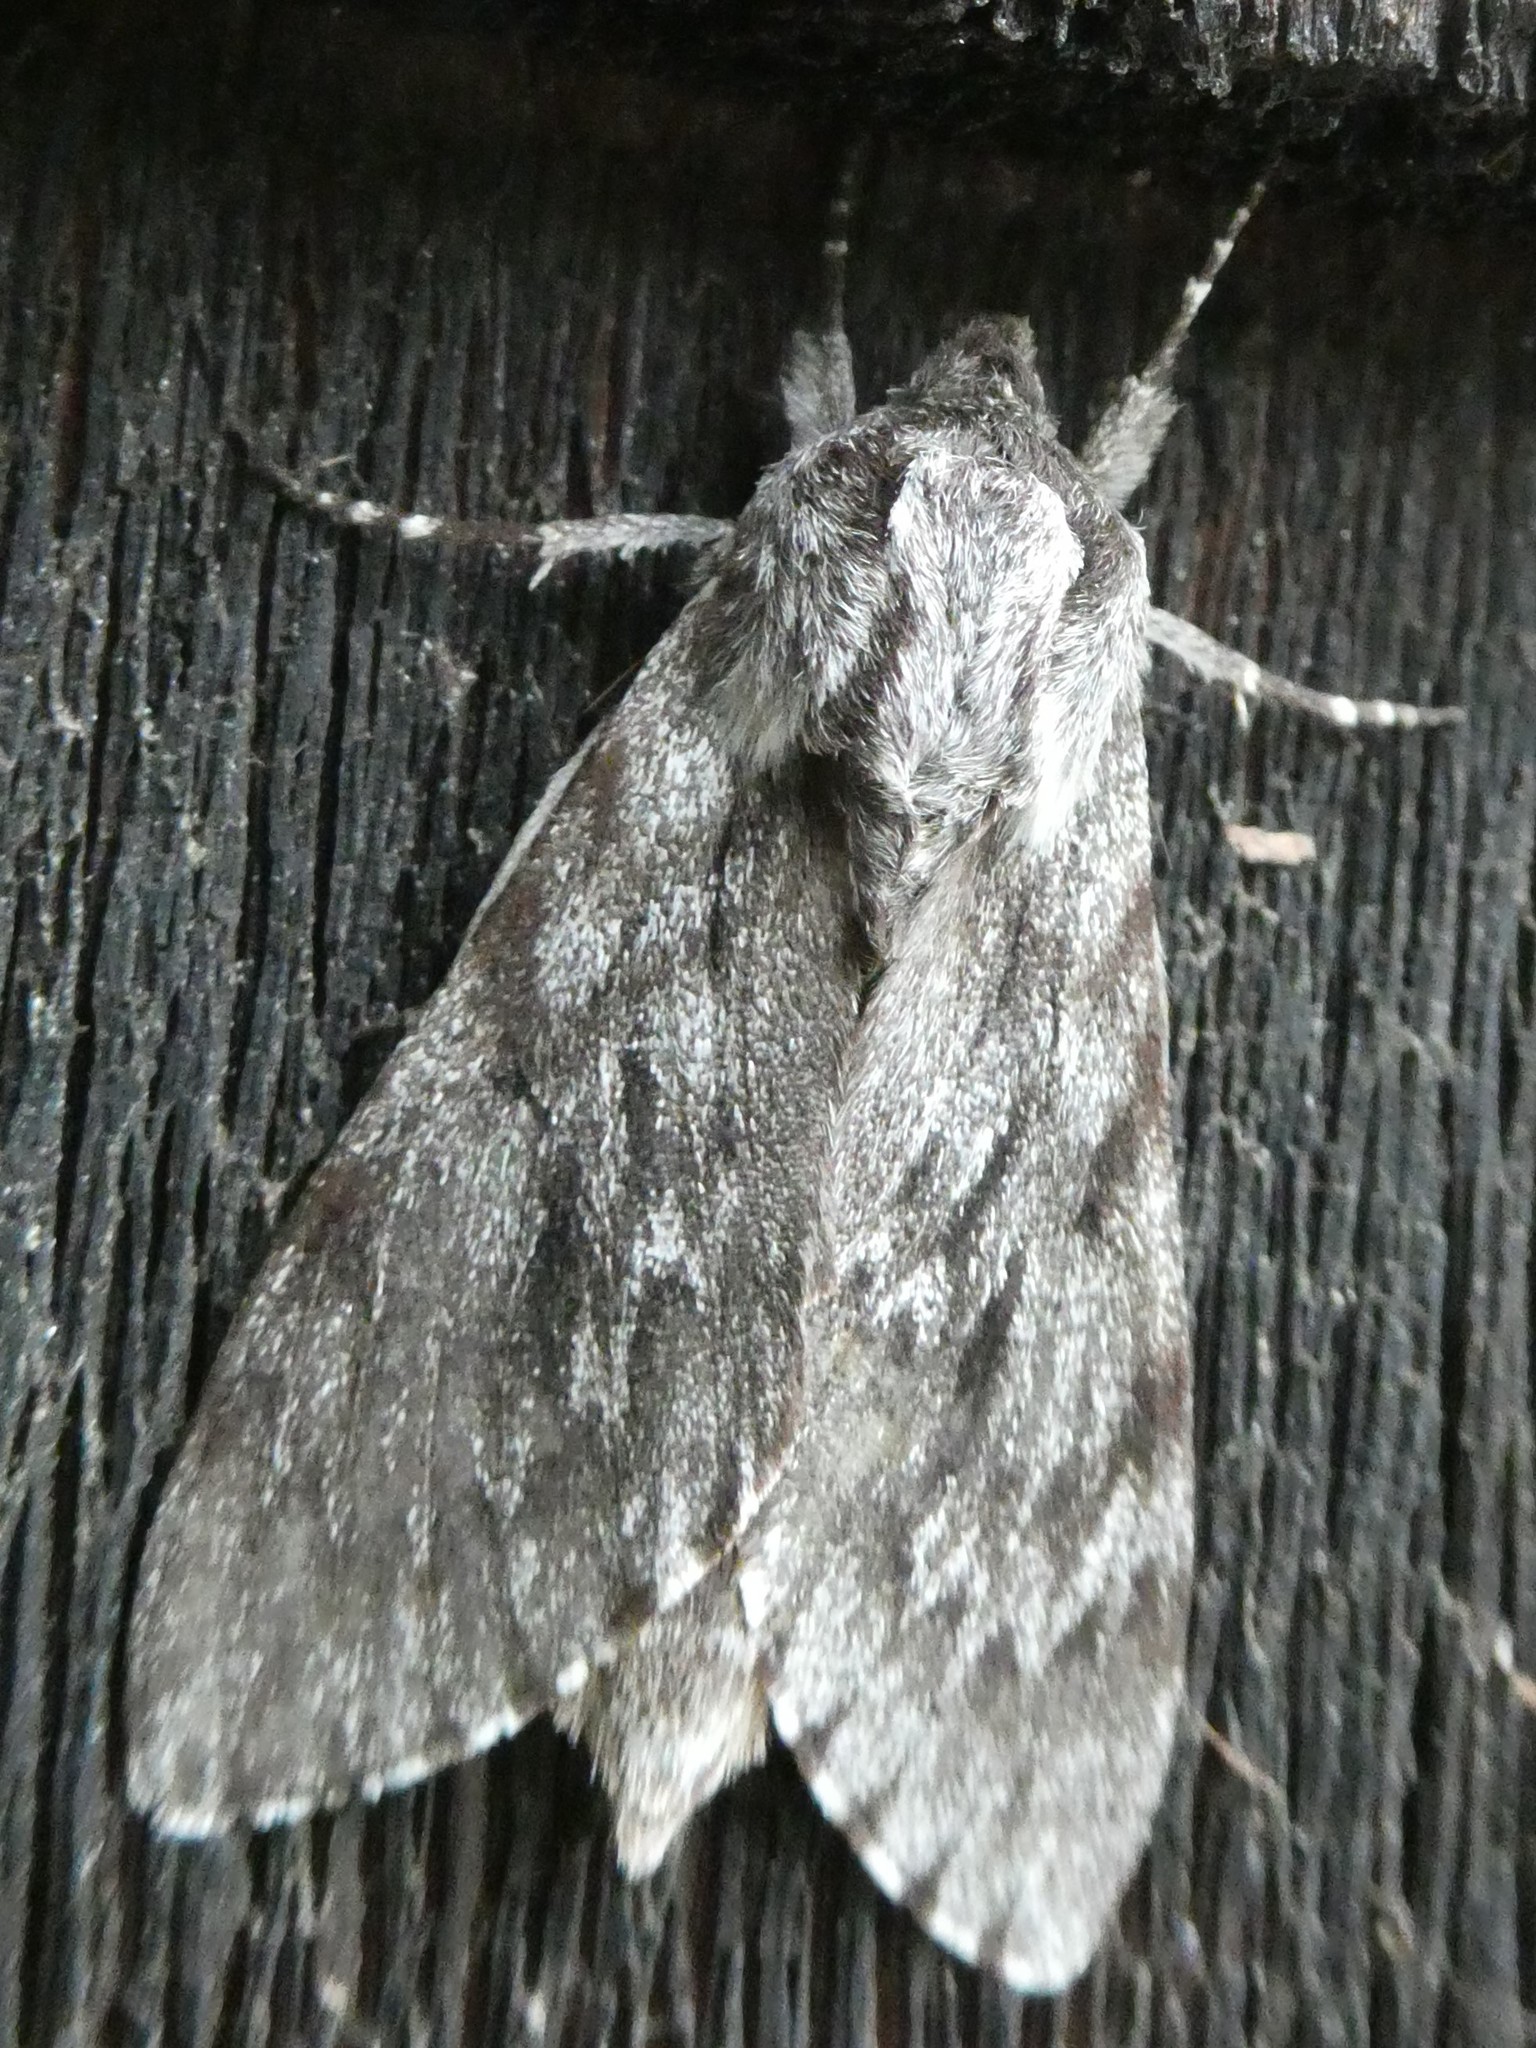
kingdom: Animalia
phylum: Arthropoda
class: Insecta
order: Lepidoptera
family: Sphingidae
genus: Lapara
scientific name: Lapara bombycoides
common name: Northern pine sphinx
